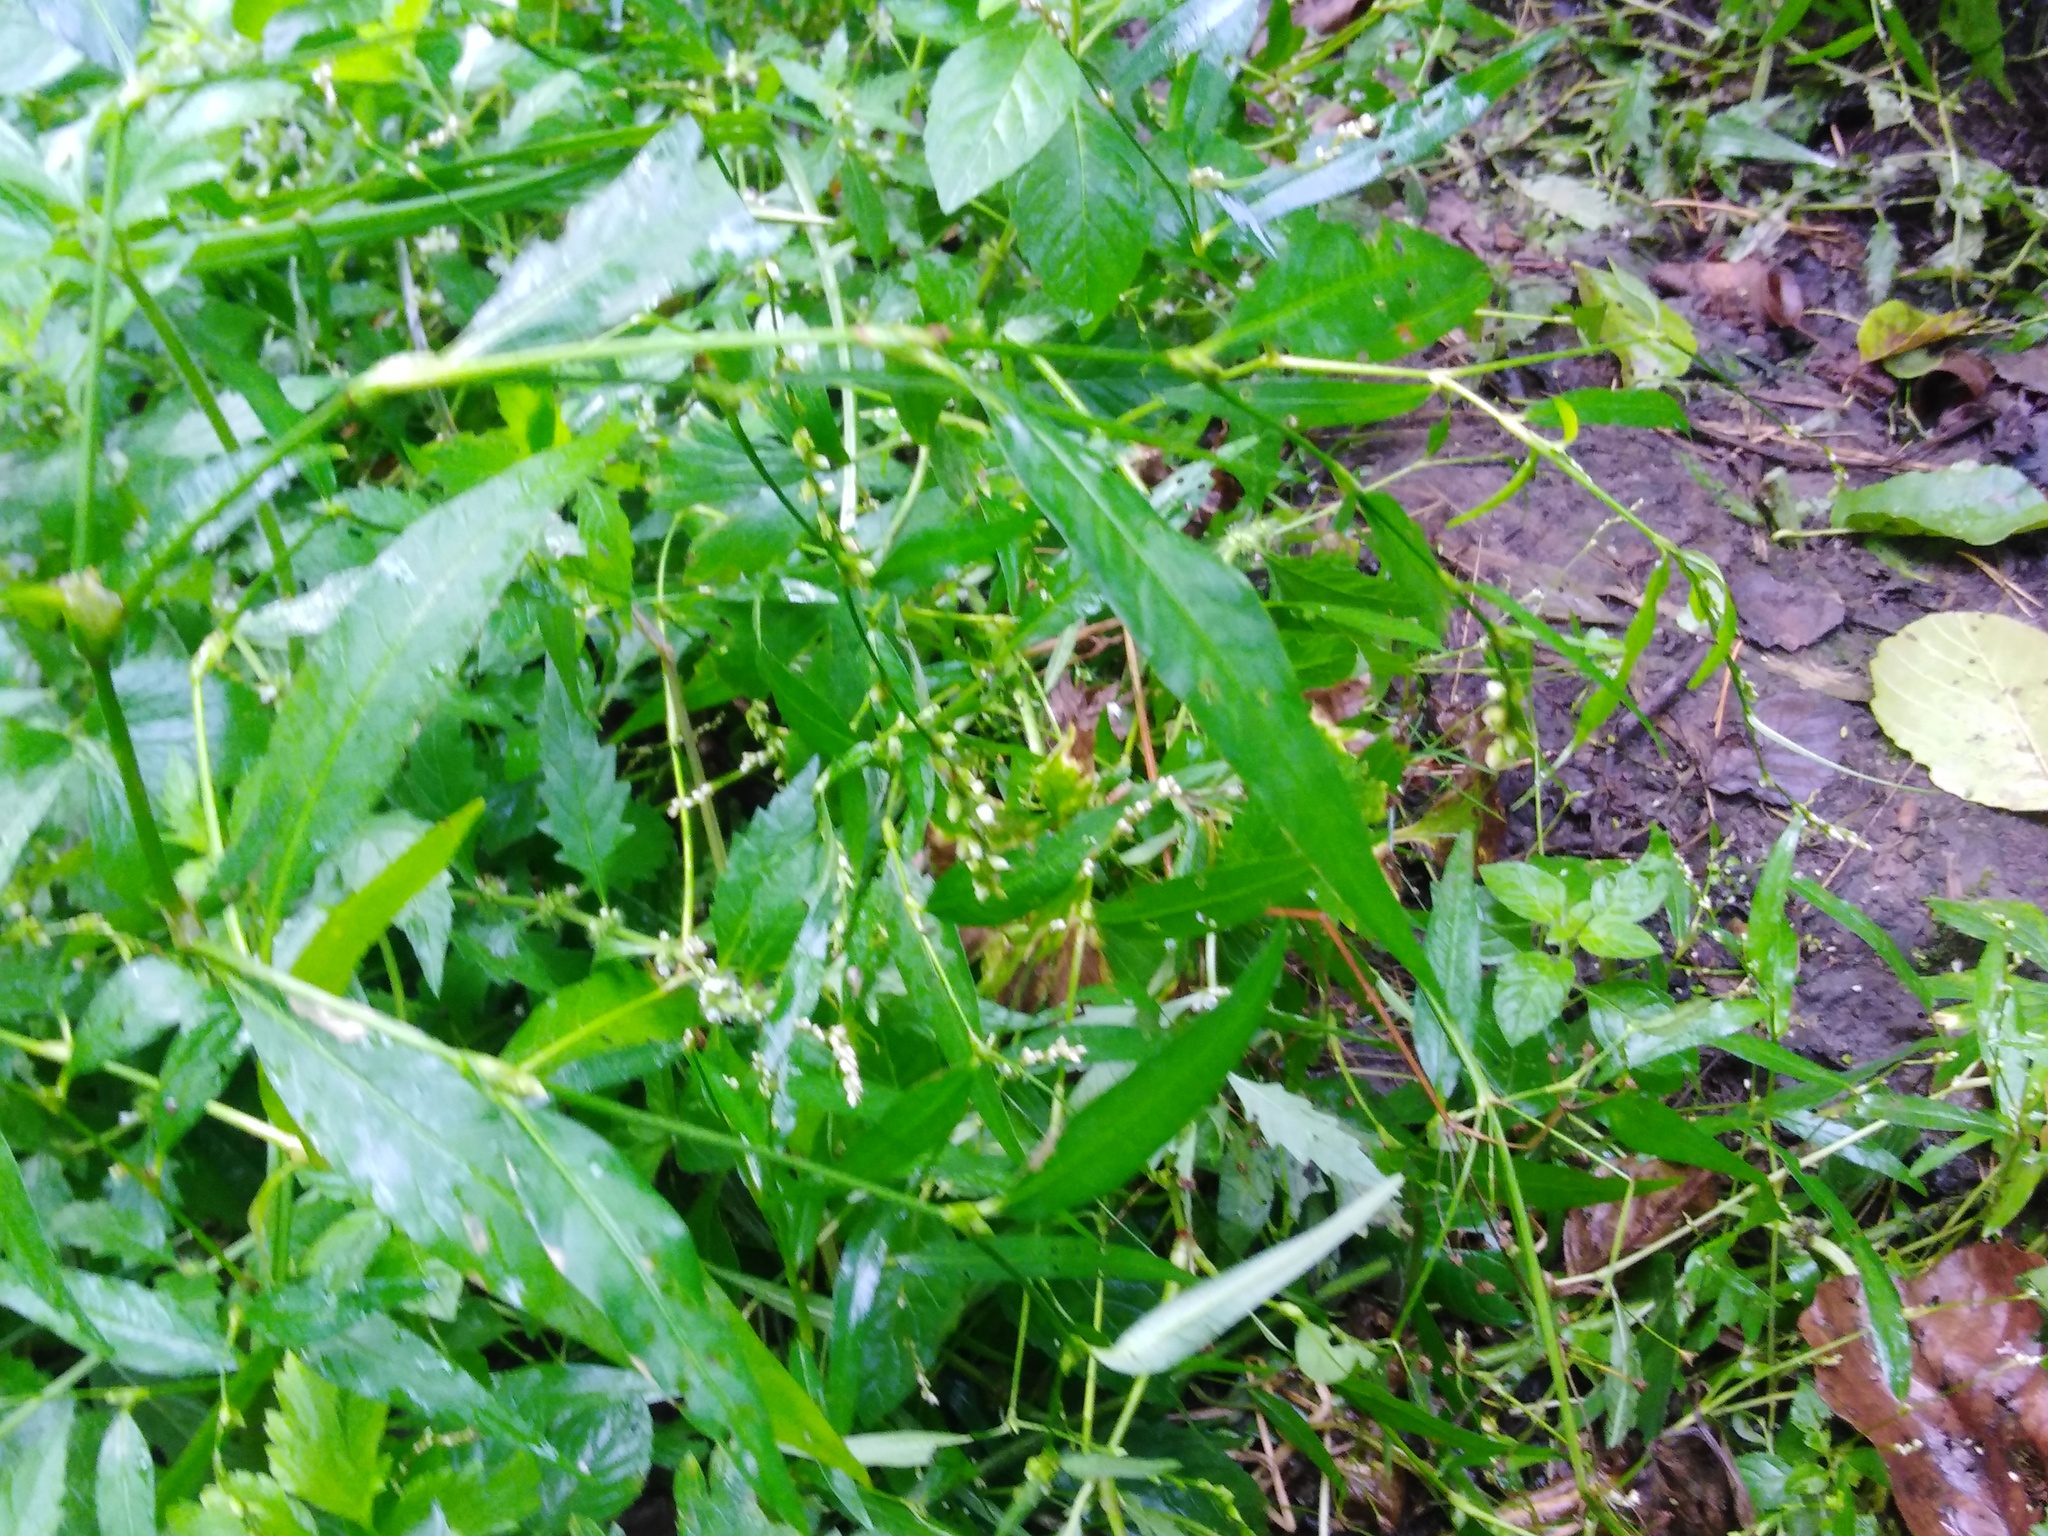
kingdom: Plantae
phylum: Tracheophyta
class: Magnoliopsida
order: Caryophyllales
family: Polygonaceae
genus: Persicaria
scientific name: Persicaria hydropiper
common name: Water-pepper
